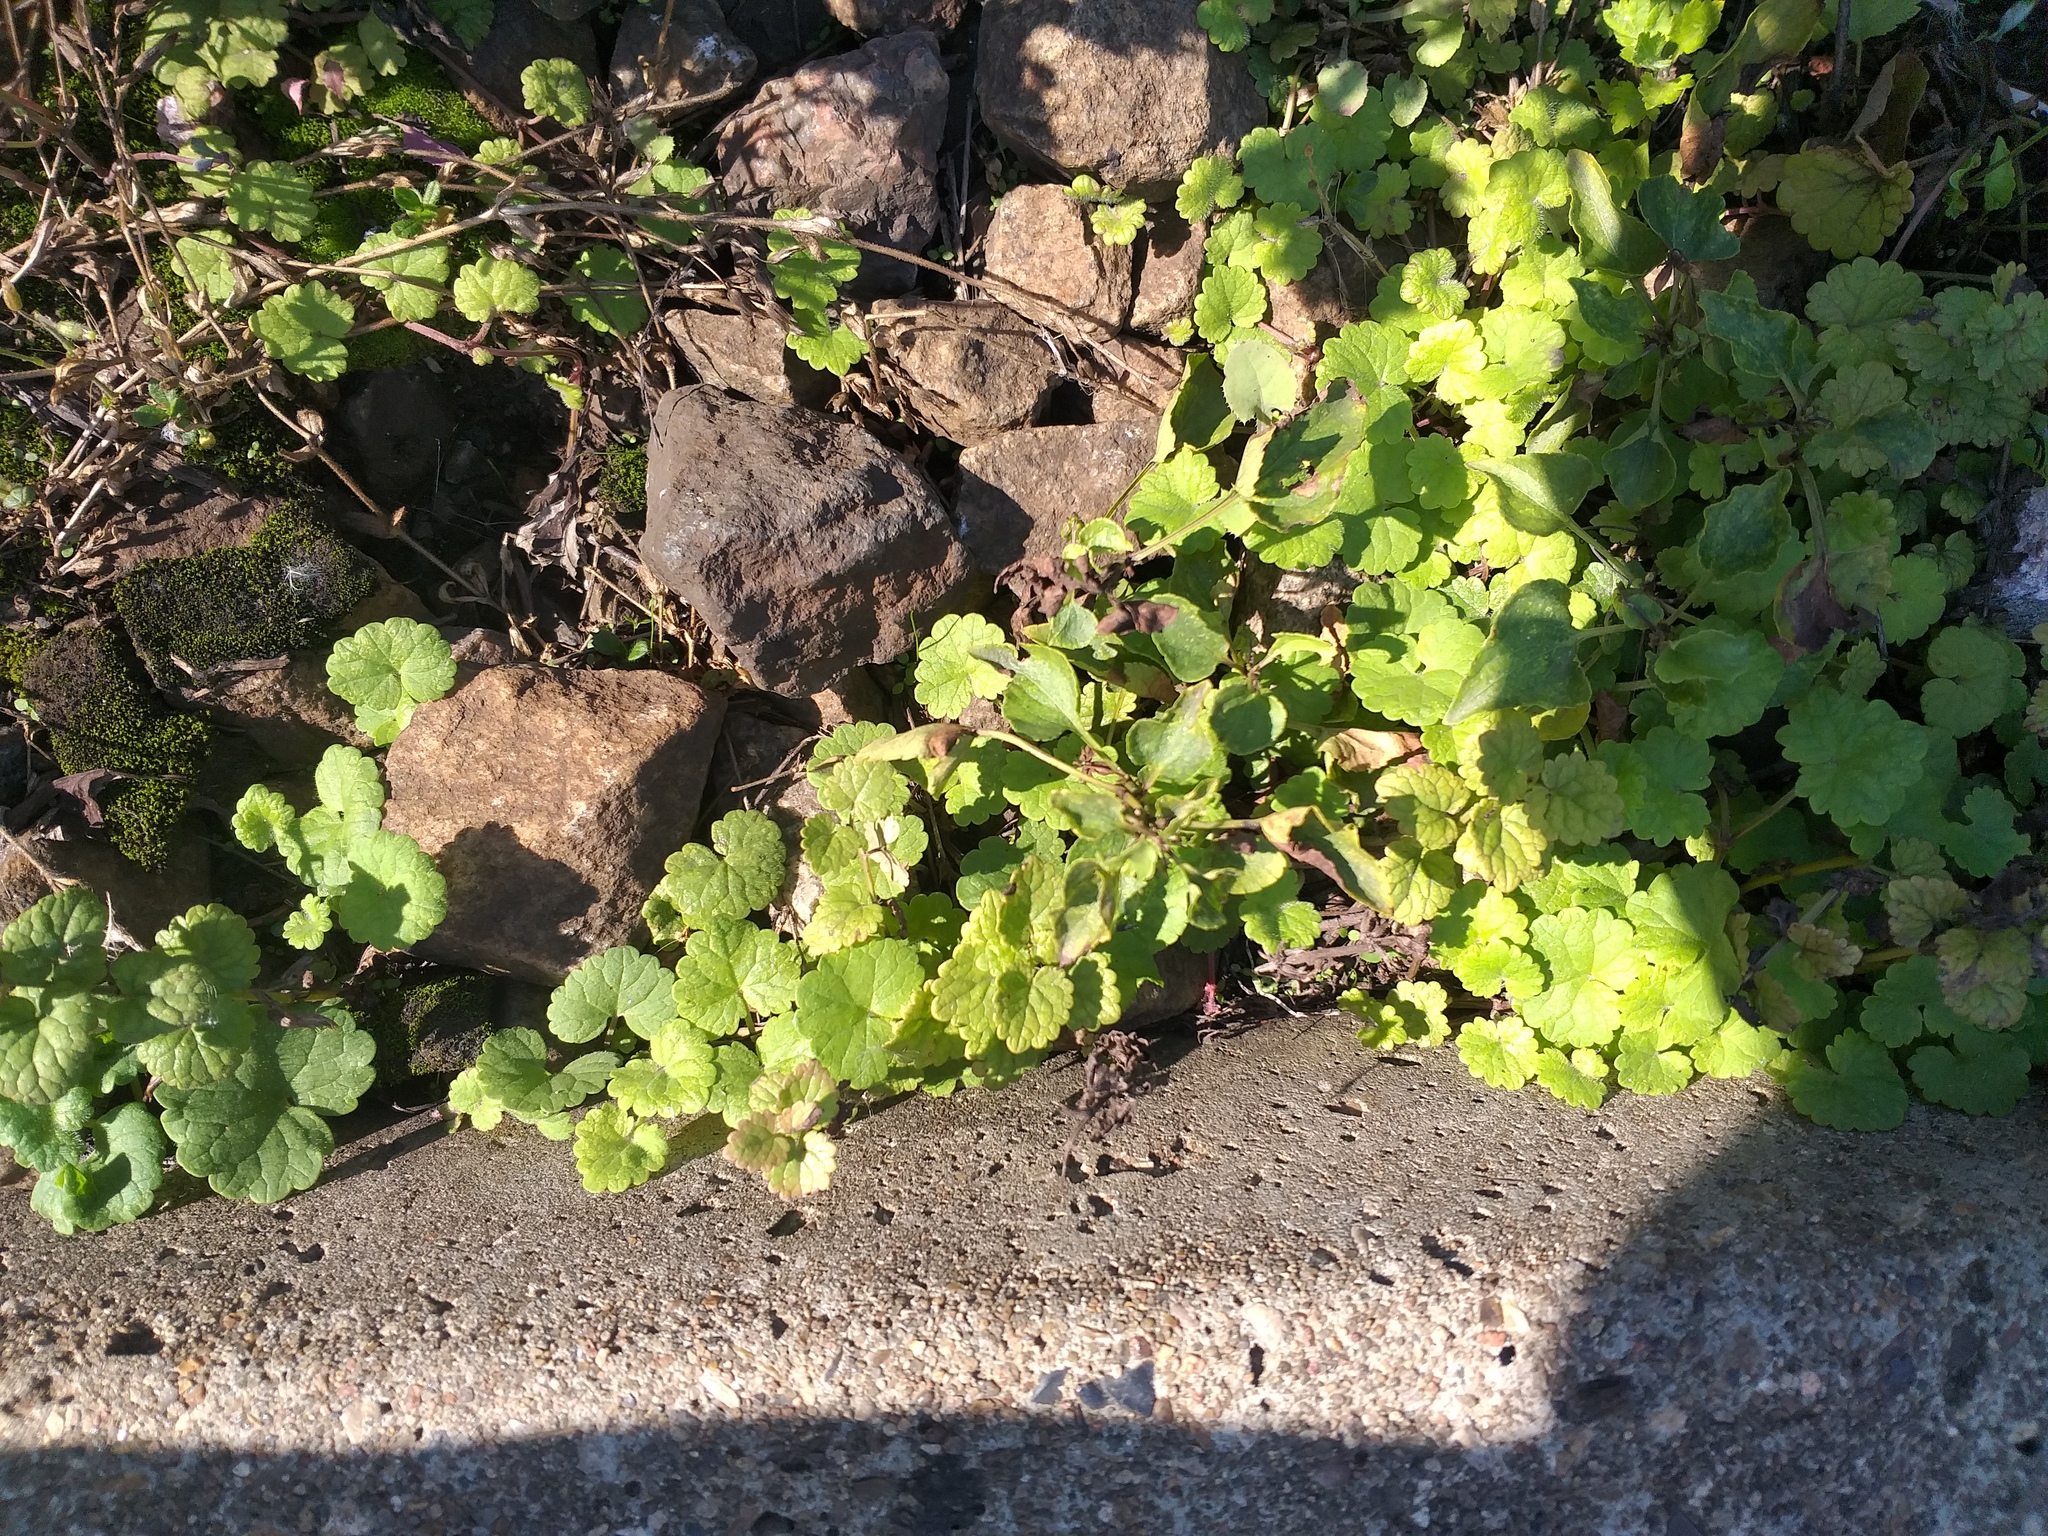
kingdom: Plantae
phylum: Tracheophyta
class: Magnoliopsida
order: Lamiales
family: Lamiaceae
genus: Glechoma
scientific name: Glechoma hederacea
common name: Ground ivy
